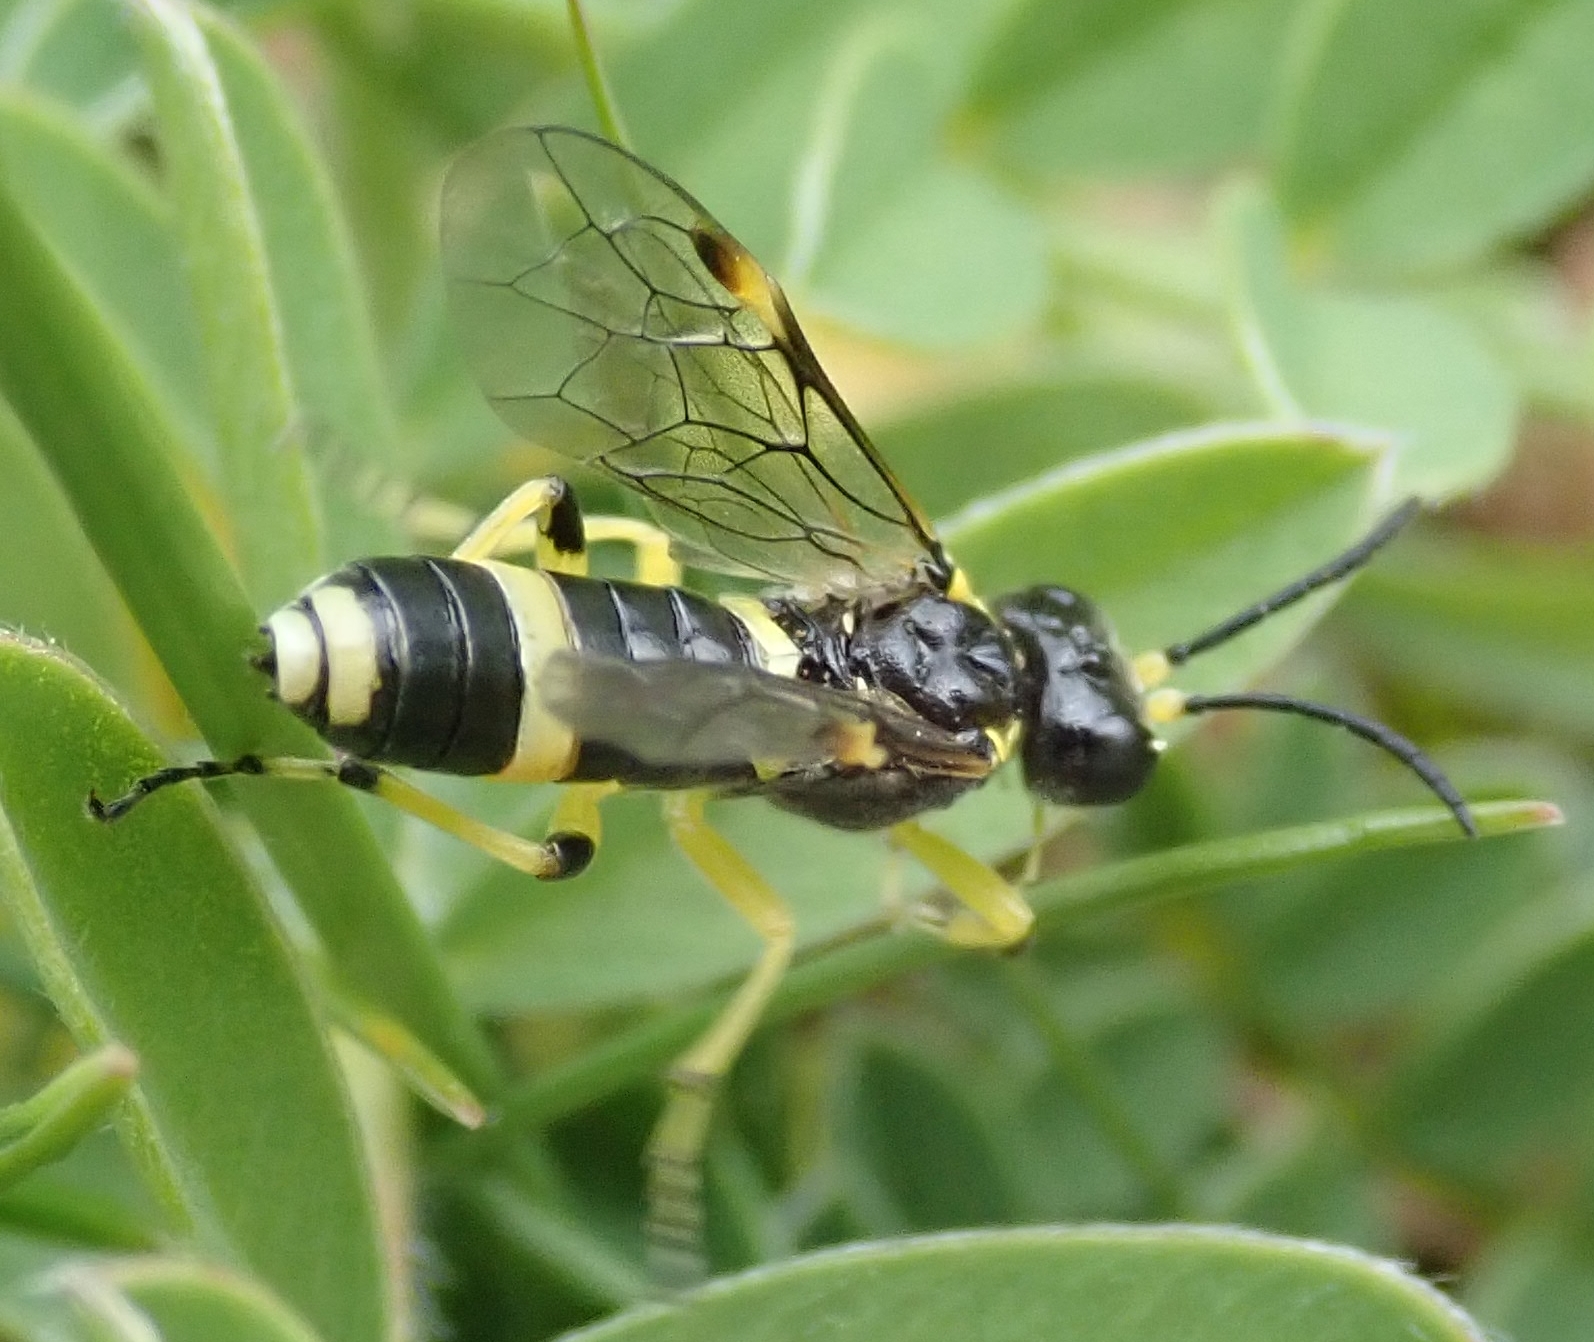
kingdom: Animalia
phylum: Arthropoda
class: Insecta
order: Hymenoptera
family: Tenthredinidae
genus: Tenthredo
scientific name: Tenthredo zonula
